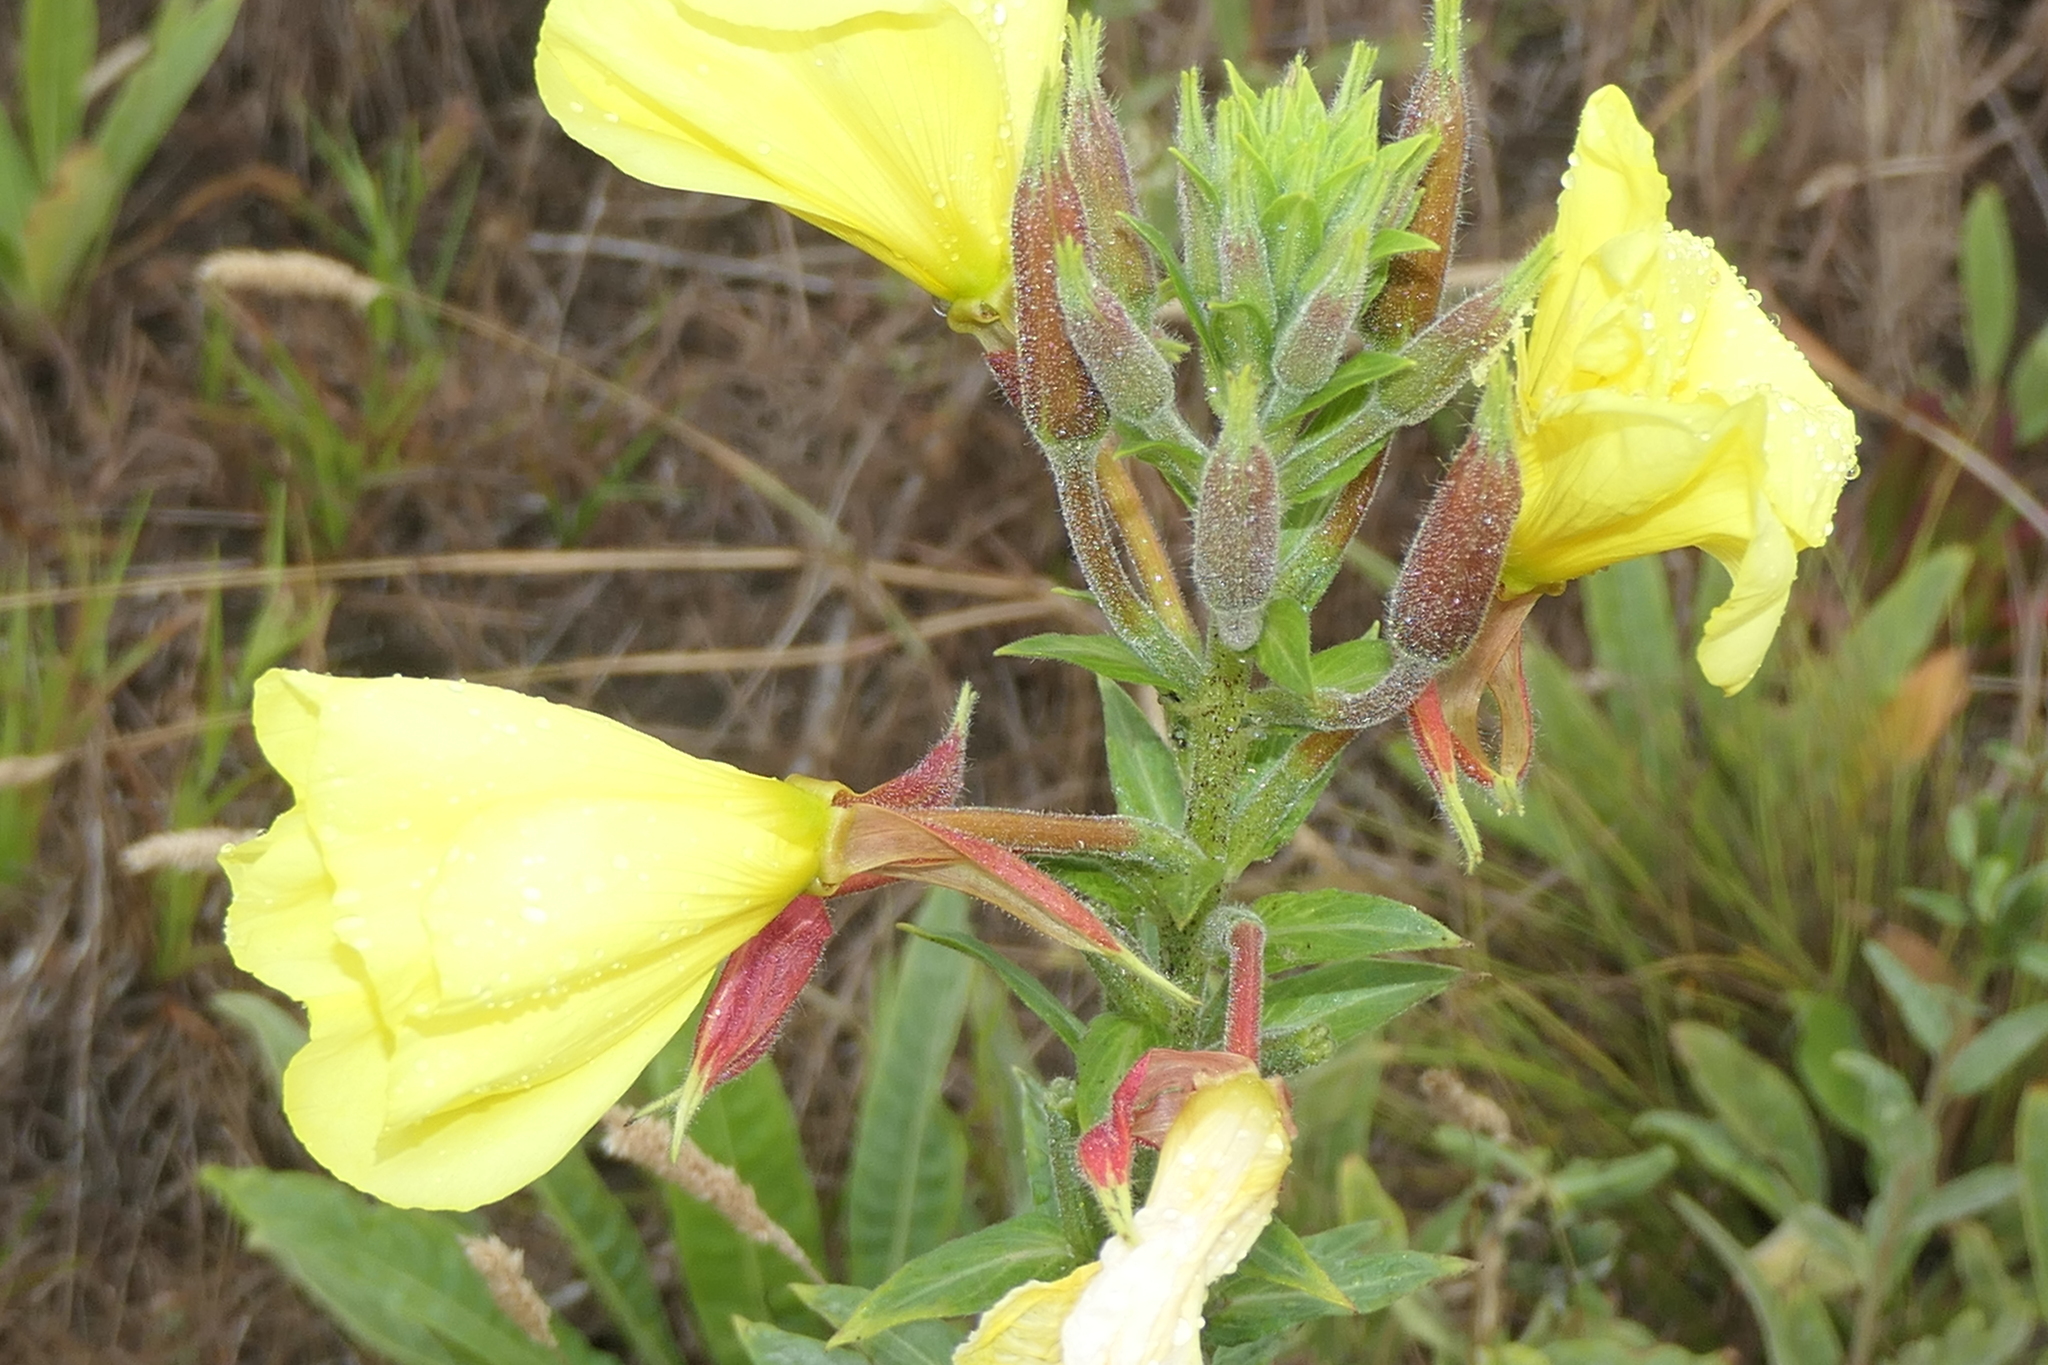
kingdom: Plantae
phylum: Tracheophyta
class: Magnoliopsida
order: Myrtales
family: Onagraceae
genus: Oenothera
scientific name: Oenothera glazioviana
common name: Large-flowered evening-primrose
